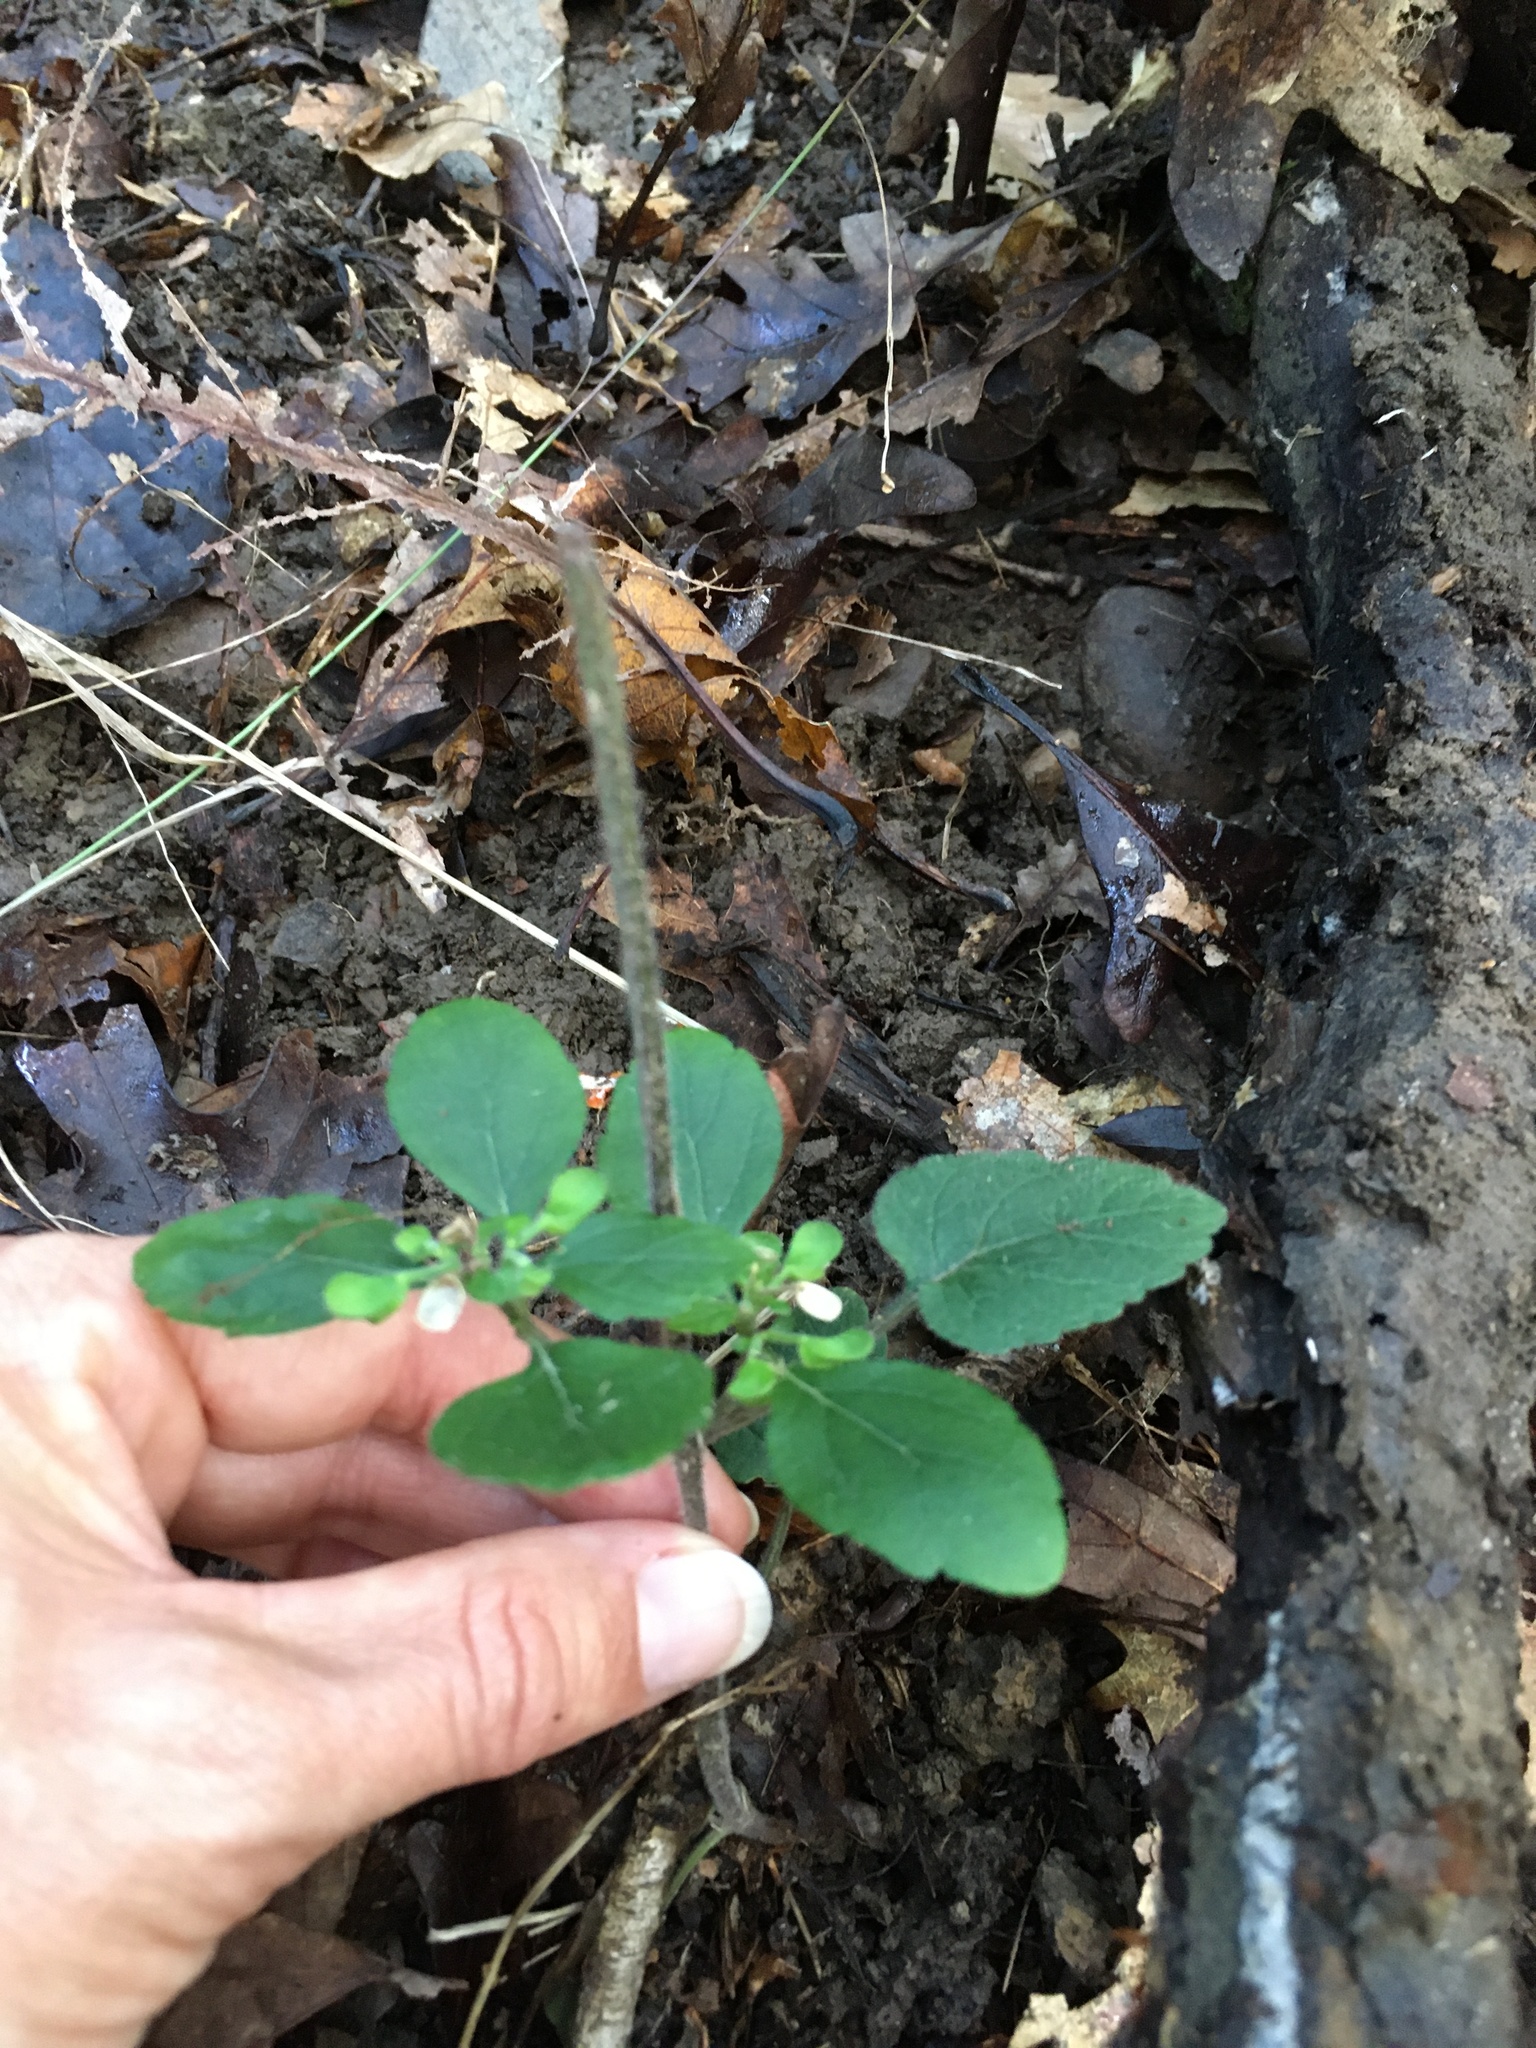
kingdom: Plantae
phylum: Tracheophyta
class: Magnoliopsida
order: Lamiales
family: Lamiaceae
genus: Scutellaria
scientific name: Scutellaria elliptica
